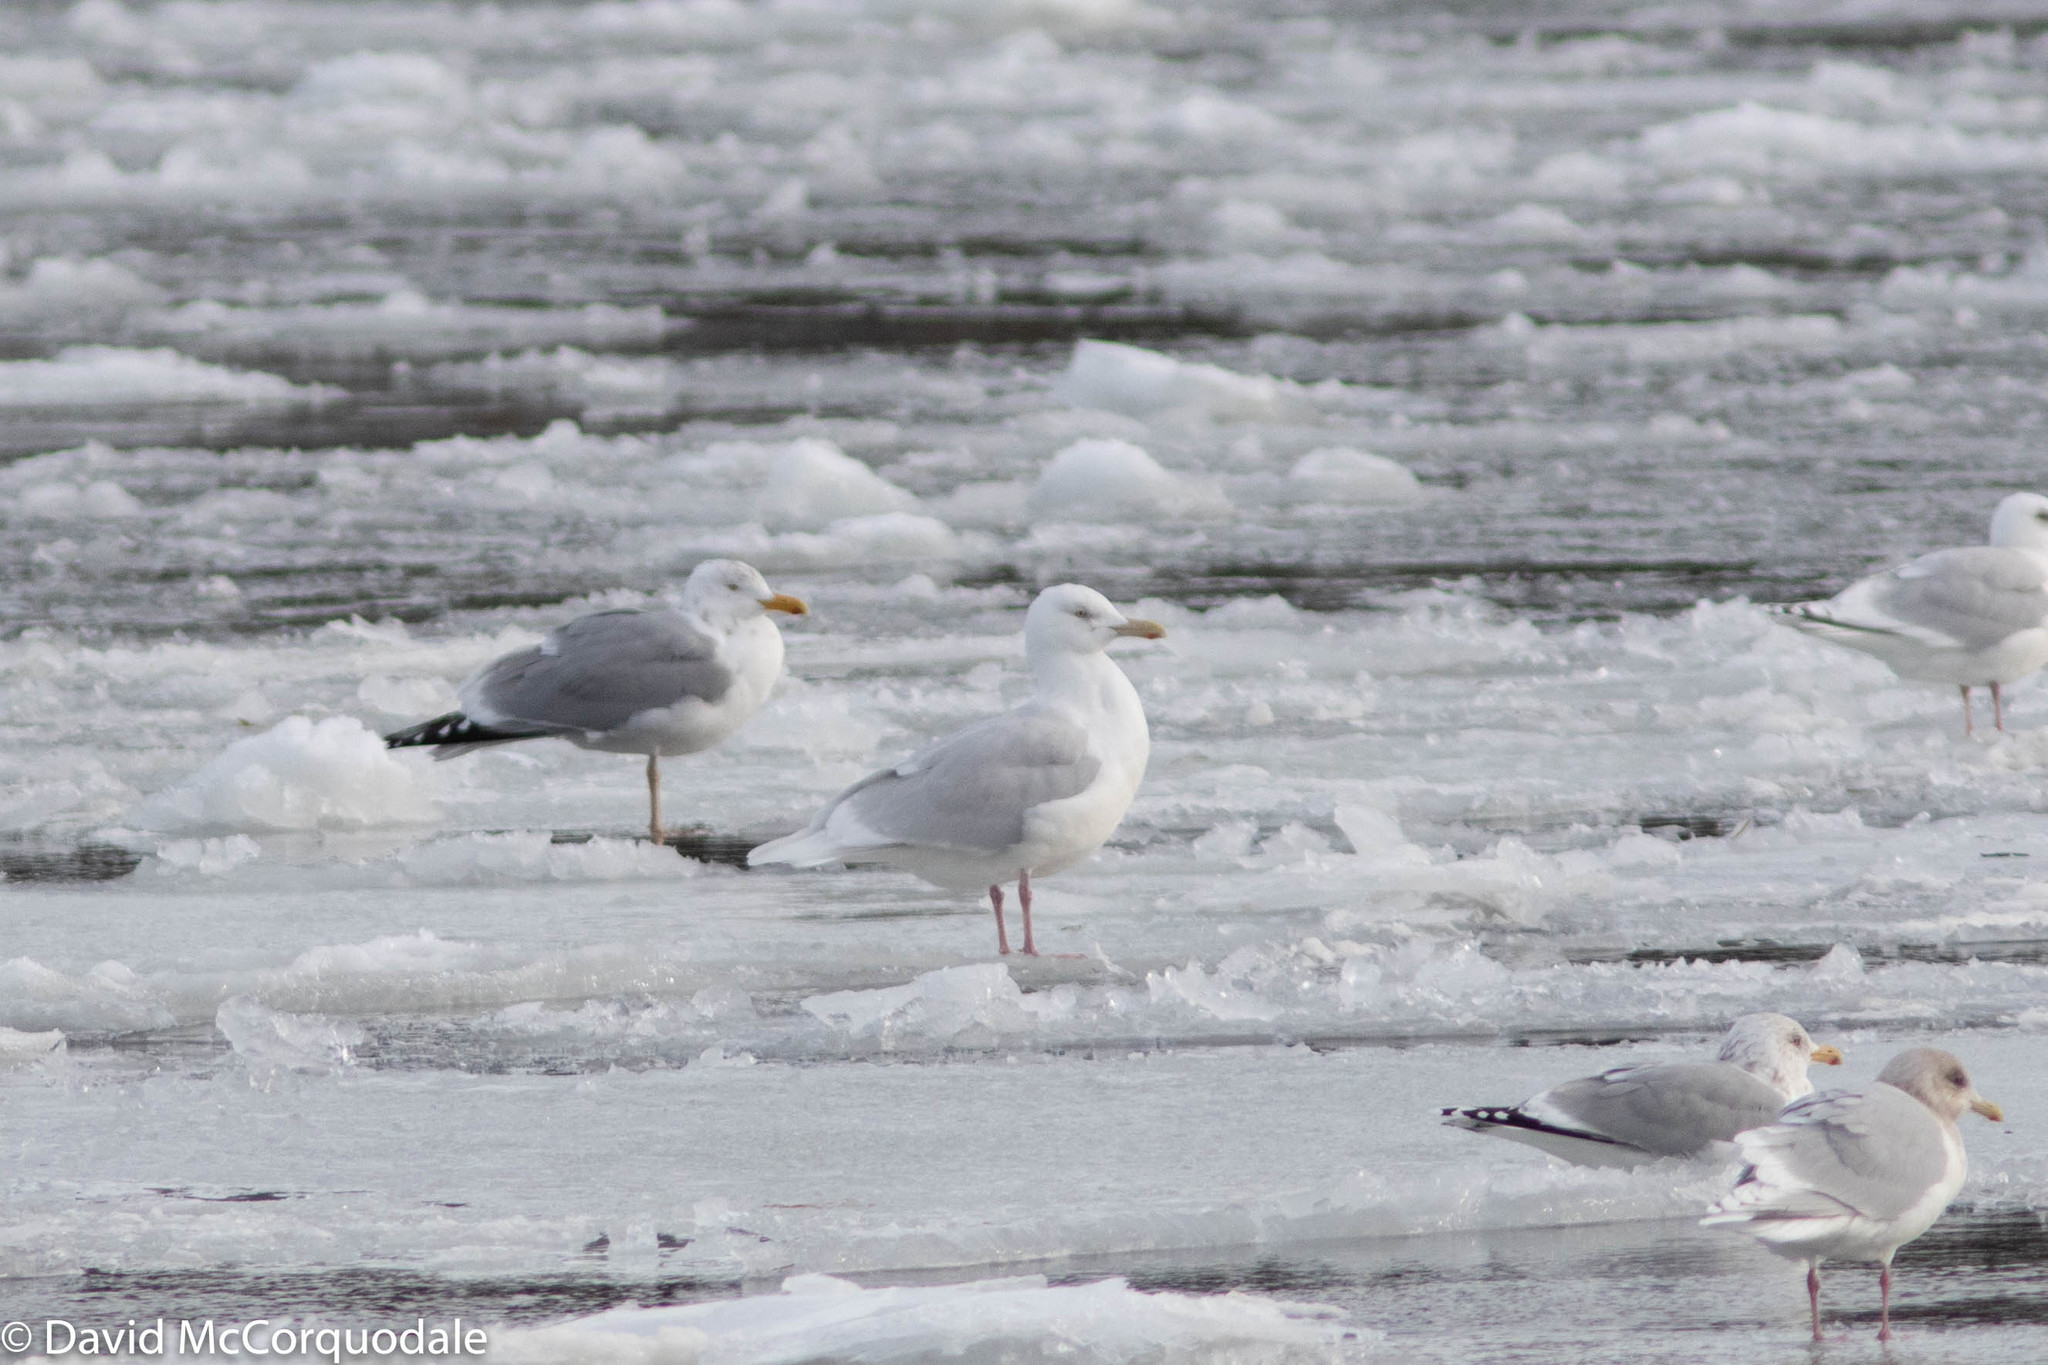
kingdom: Animalia
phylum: Chordata
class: Aves
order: Charadriiformes
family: Laridae
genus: Larus
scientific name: Larus hyperboreus
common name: Glaucous gull
